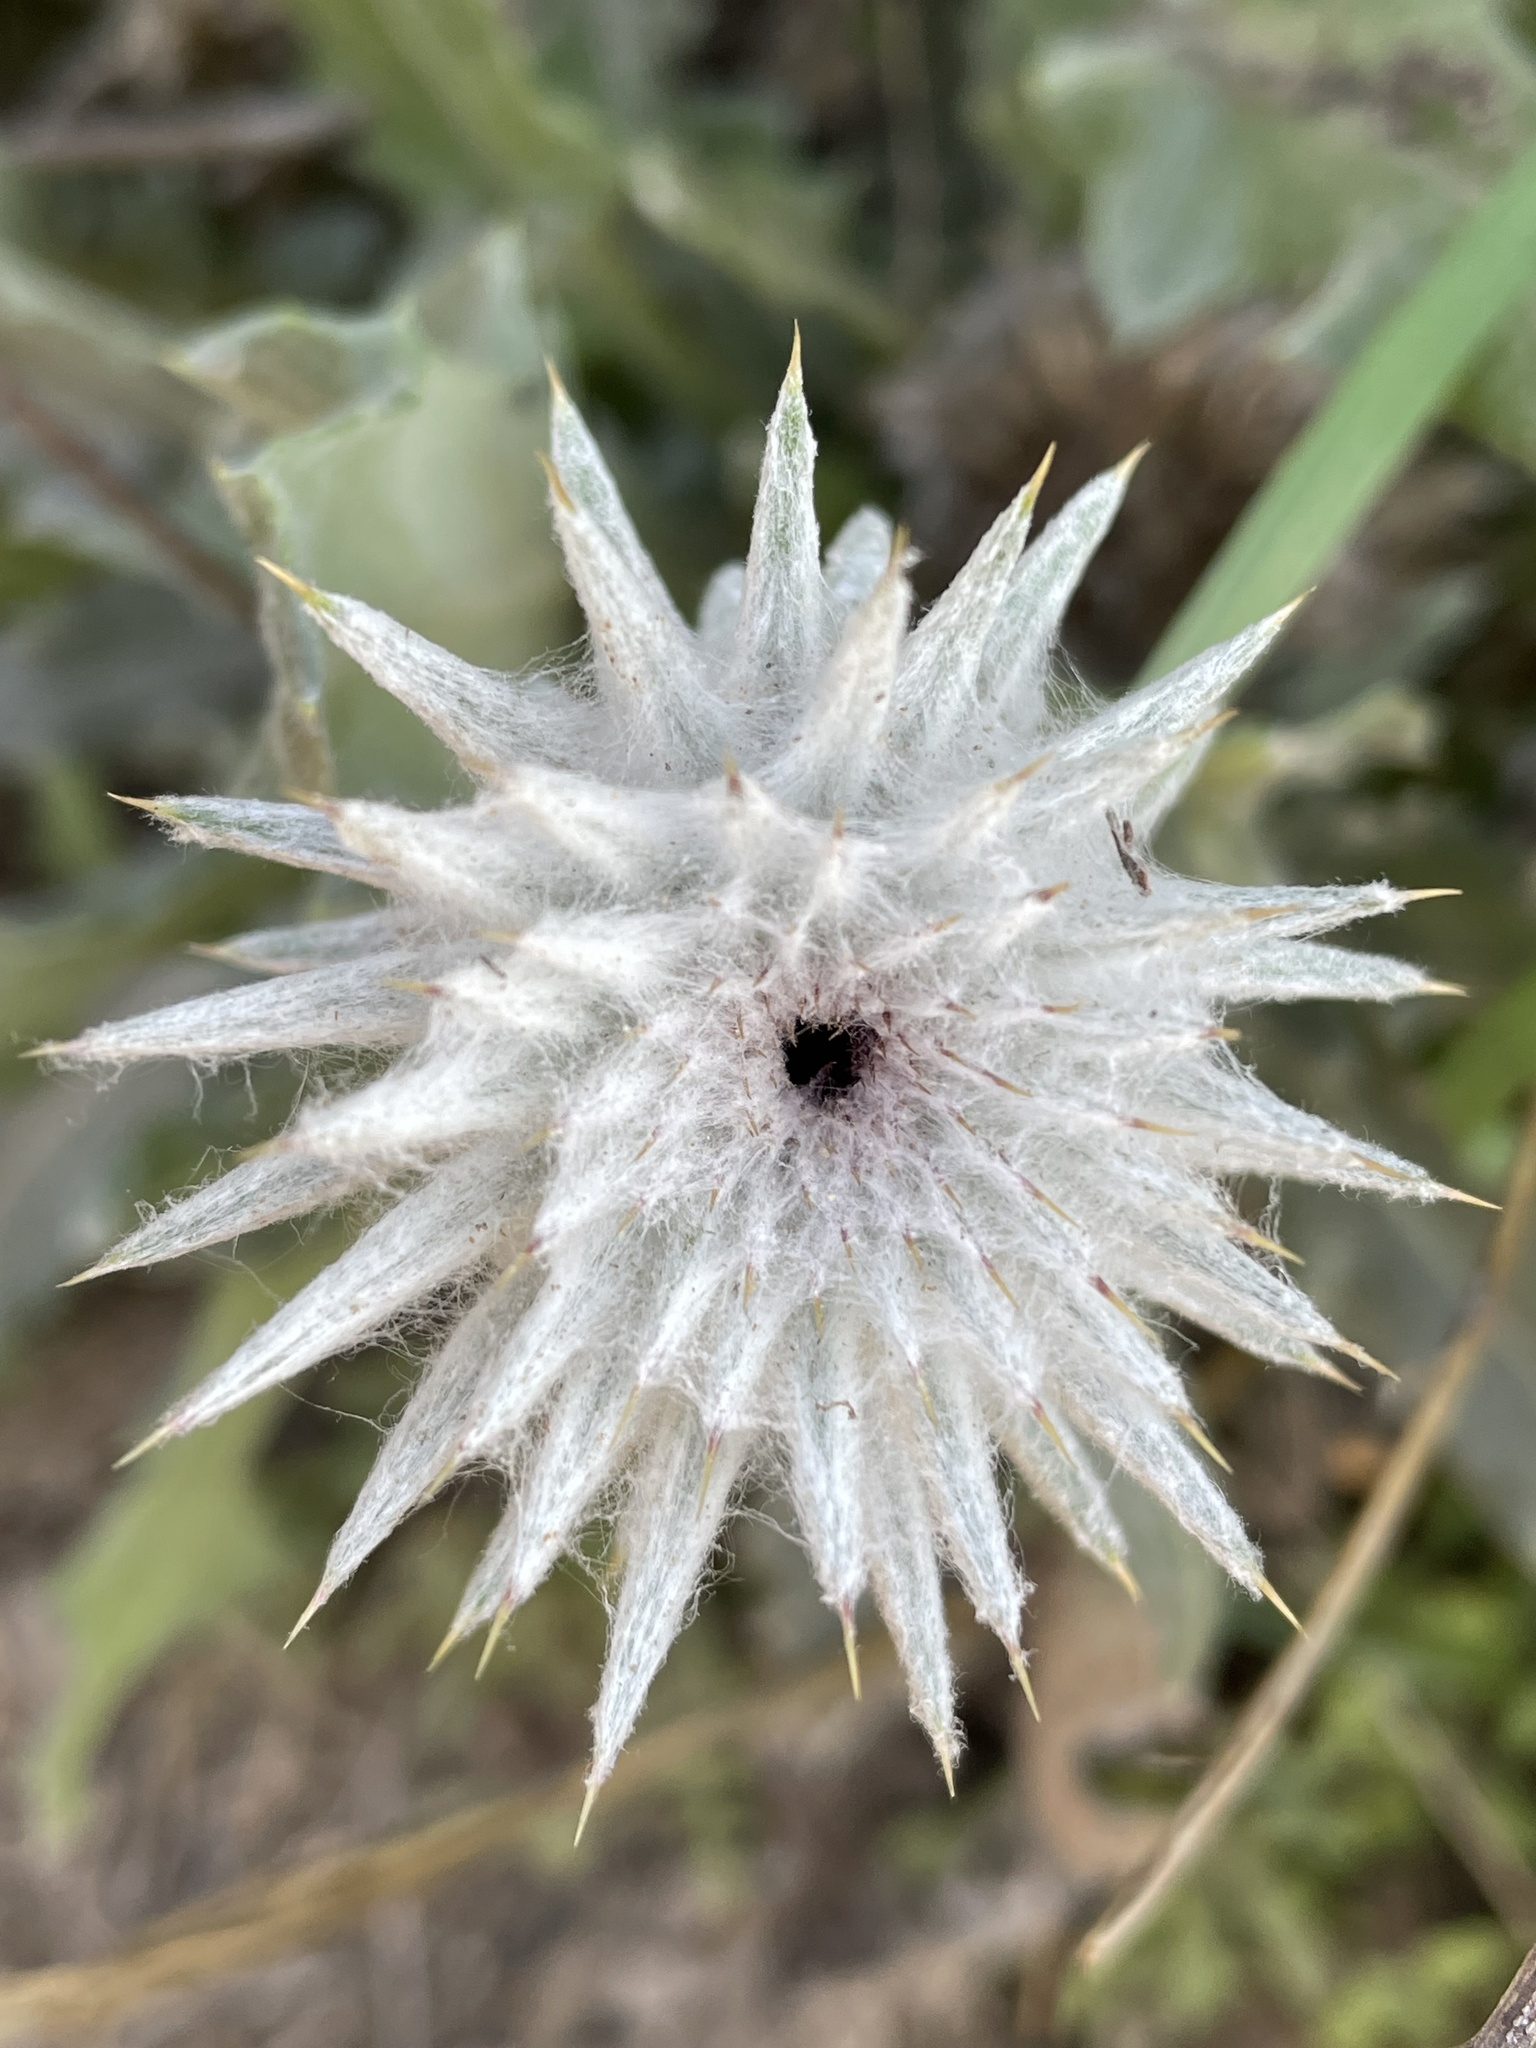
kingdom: Plantae
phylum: Tracheophyta
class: Magnoliopsida
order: Asterales
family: Asteraceae
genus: Cirsium
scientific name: Cirsium occidentale
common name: Western thistle
